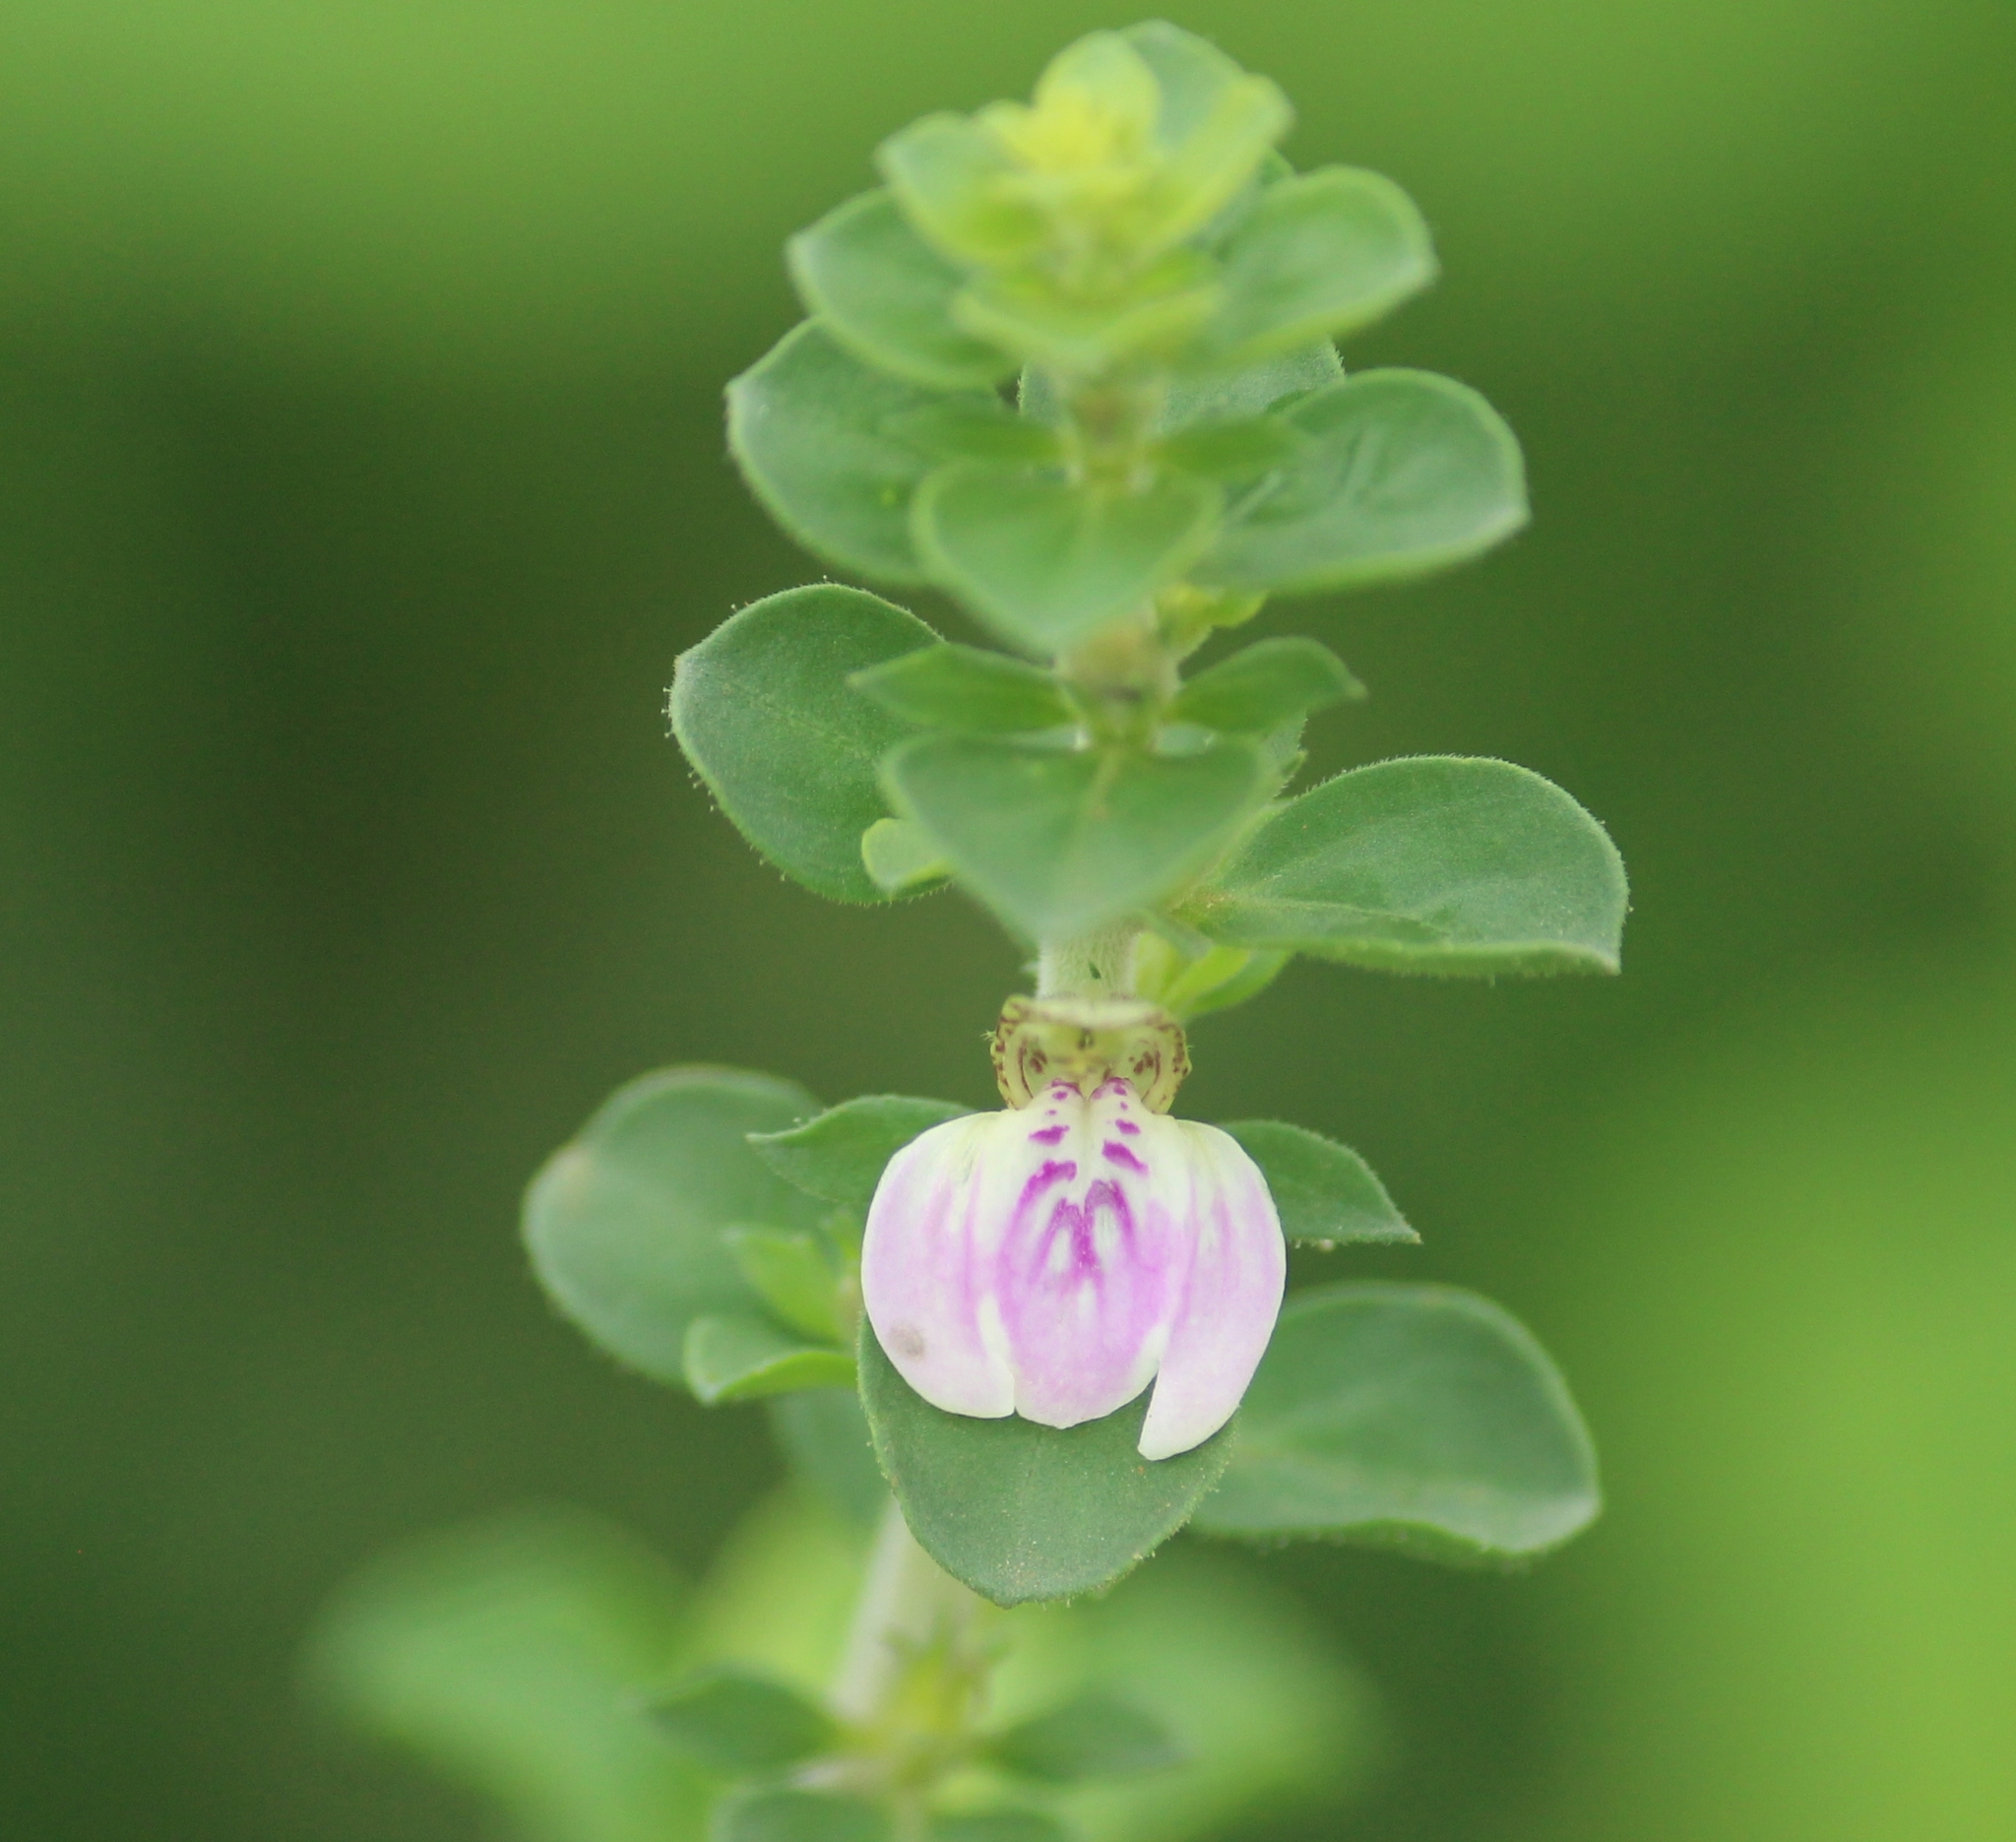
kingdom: Plantae
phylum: Tracheophyta
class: Magnoliopsida
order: Lamiales
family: Acanthaceae
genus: Justicia
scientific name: Justicia glauca
